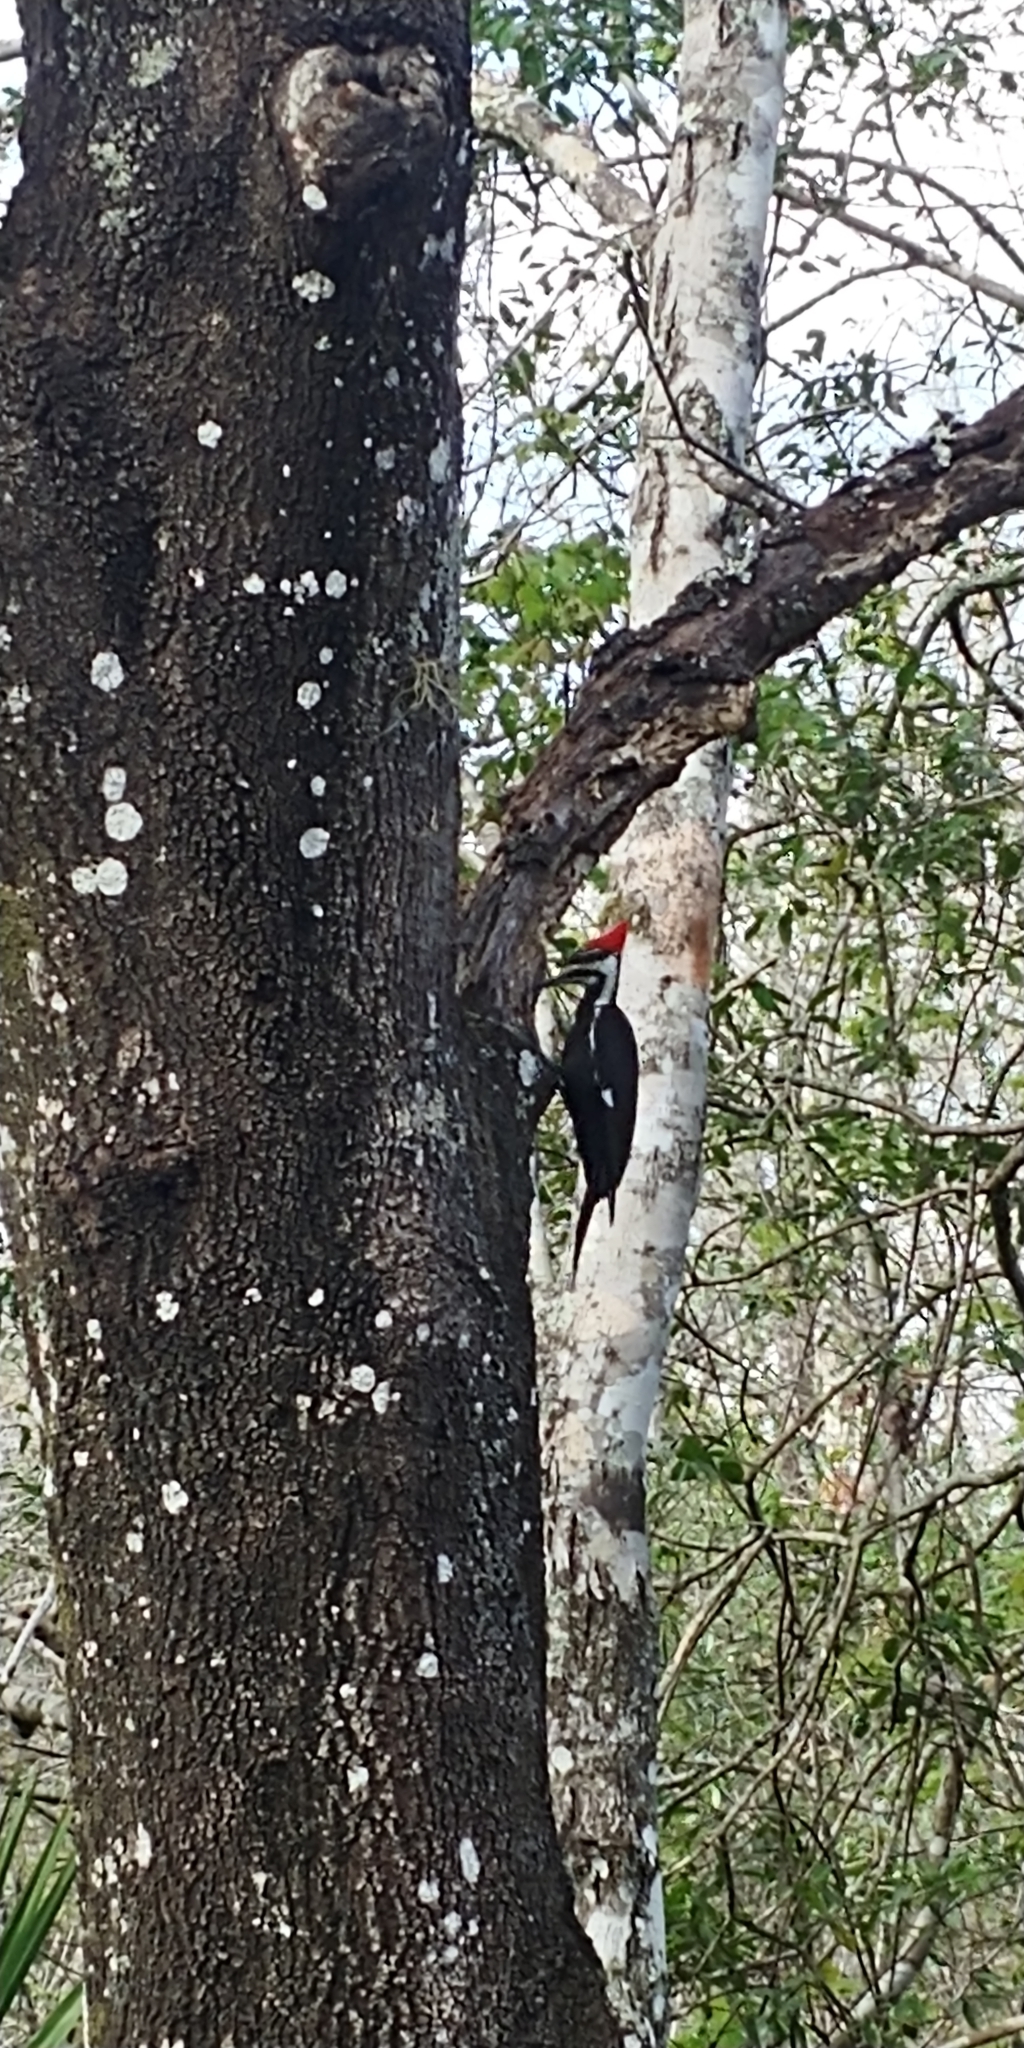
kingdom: Animalia
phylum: Chordata
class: Aves
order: Piciformes
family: Picidae
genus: Dryocopus
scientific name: Dryocopus pileatus
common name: Pileated woodpecker
